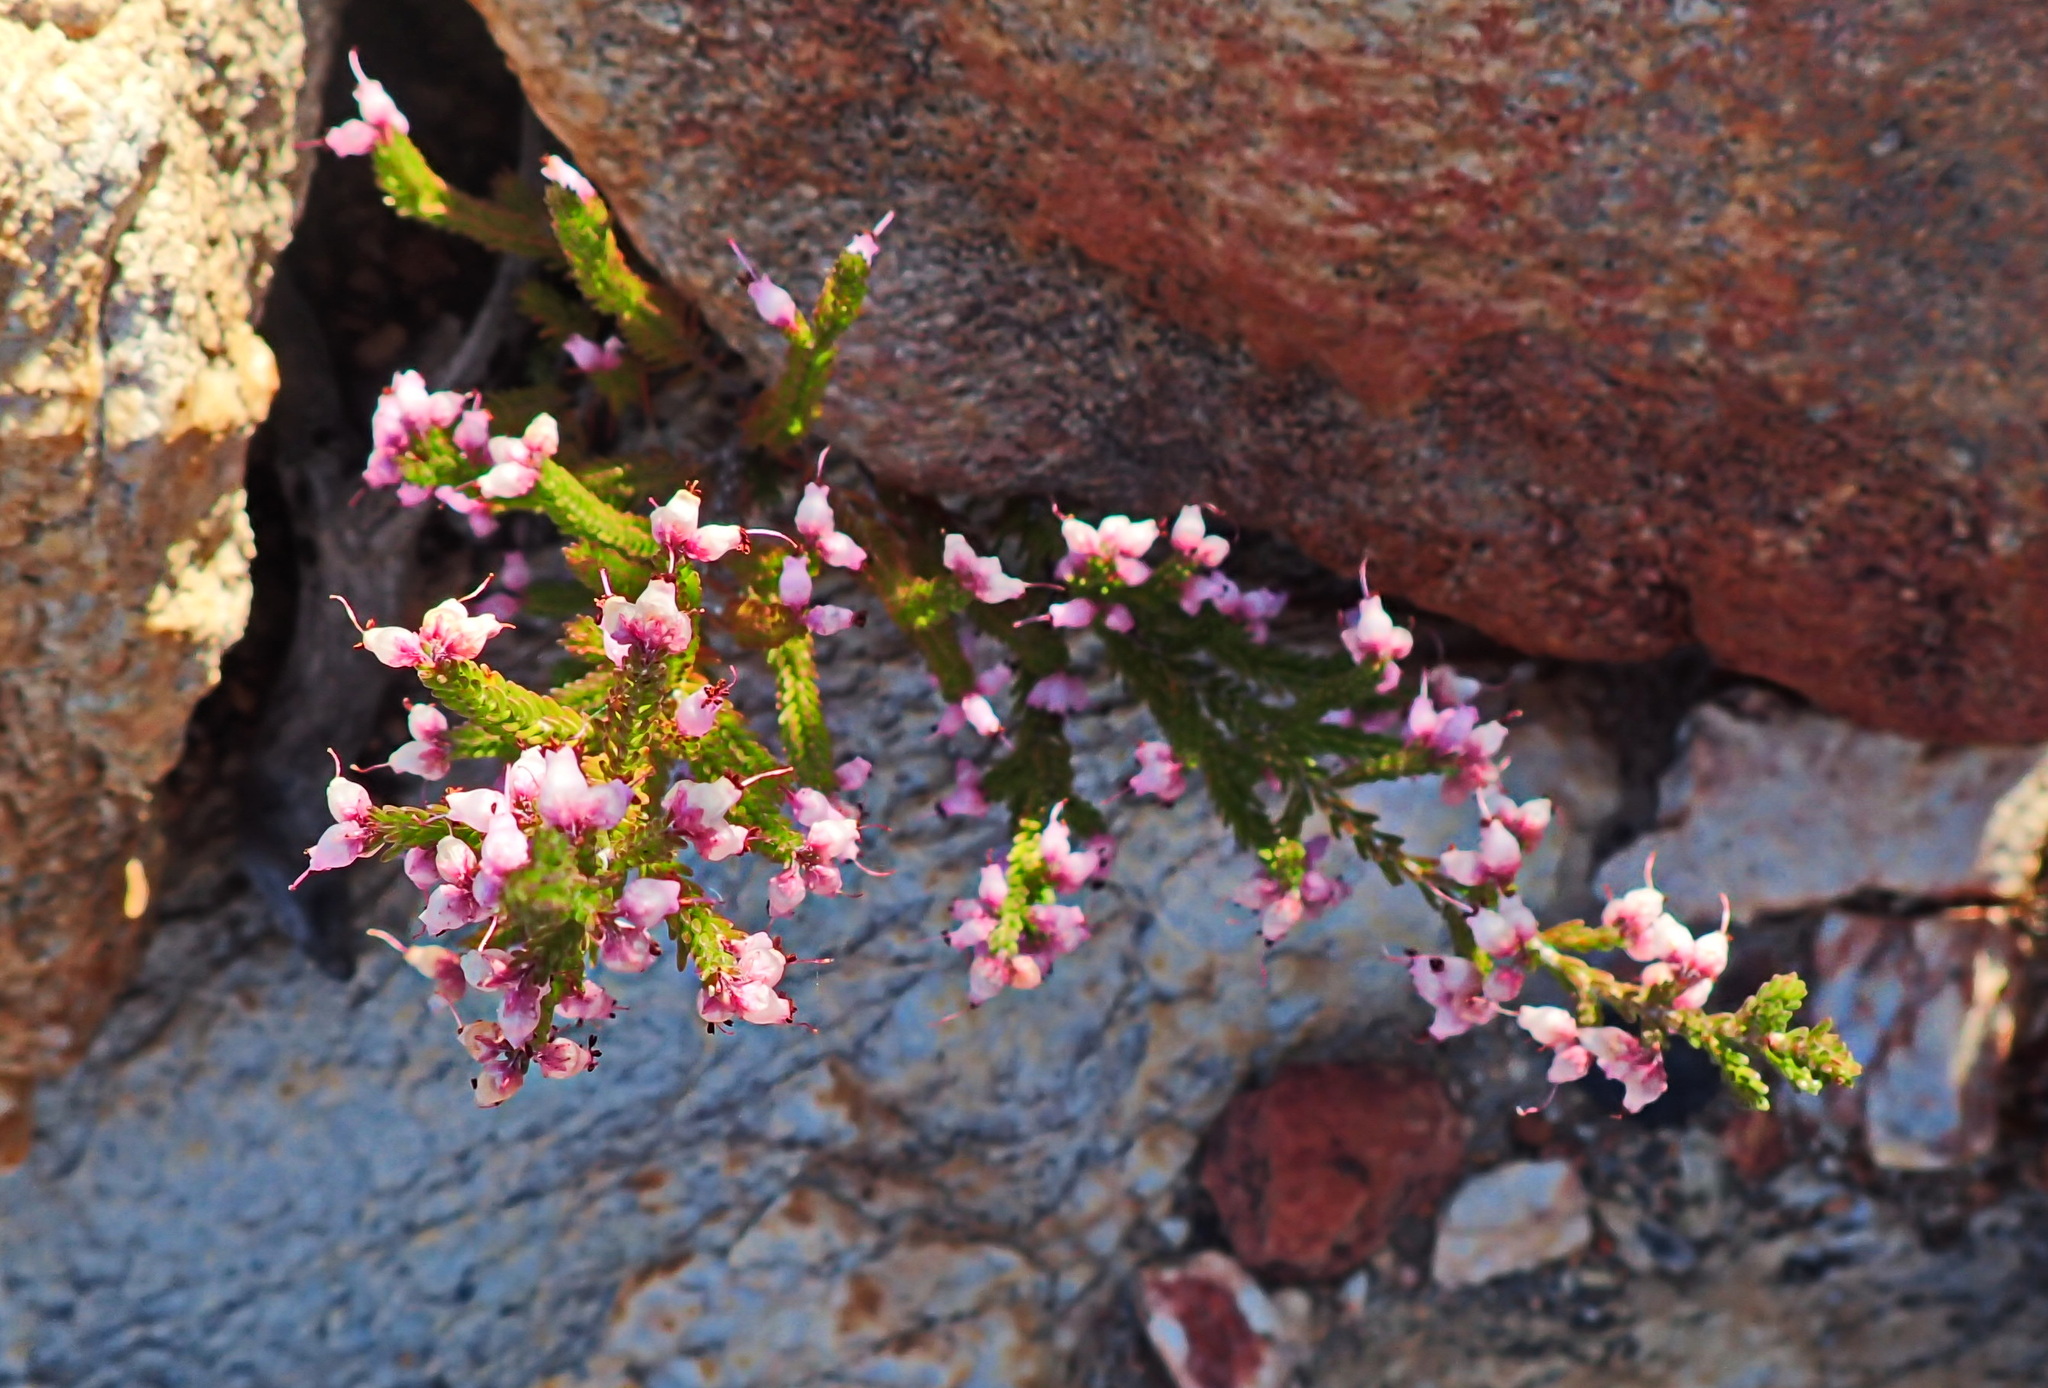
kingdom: Plantae
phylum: Tracheophyta
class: Magnoliopsida
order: Ericales
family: Ericaceae
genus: Erica
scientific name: Erica vlokii
